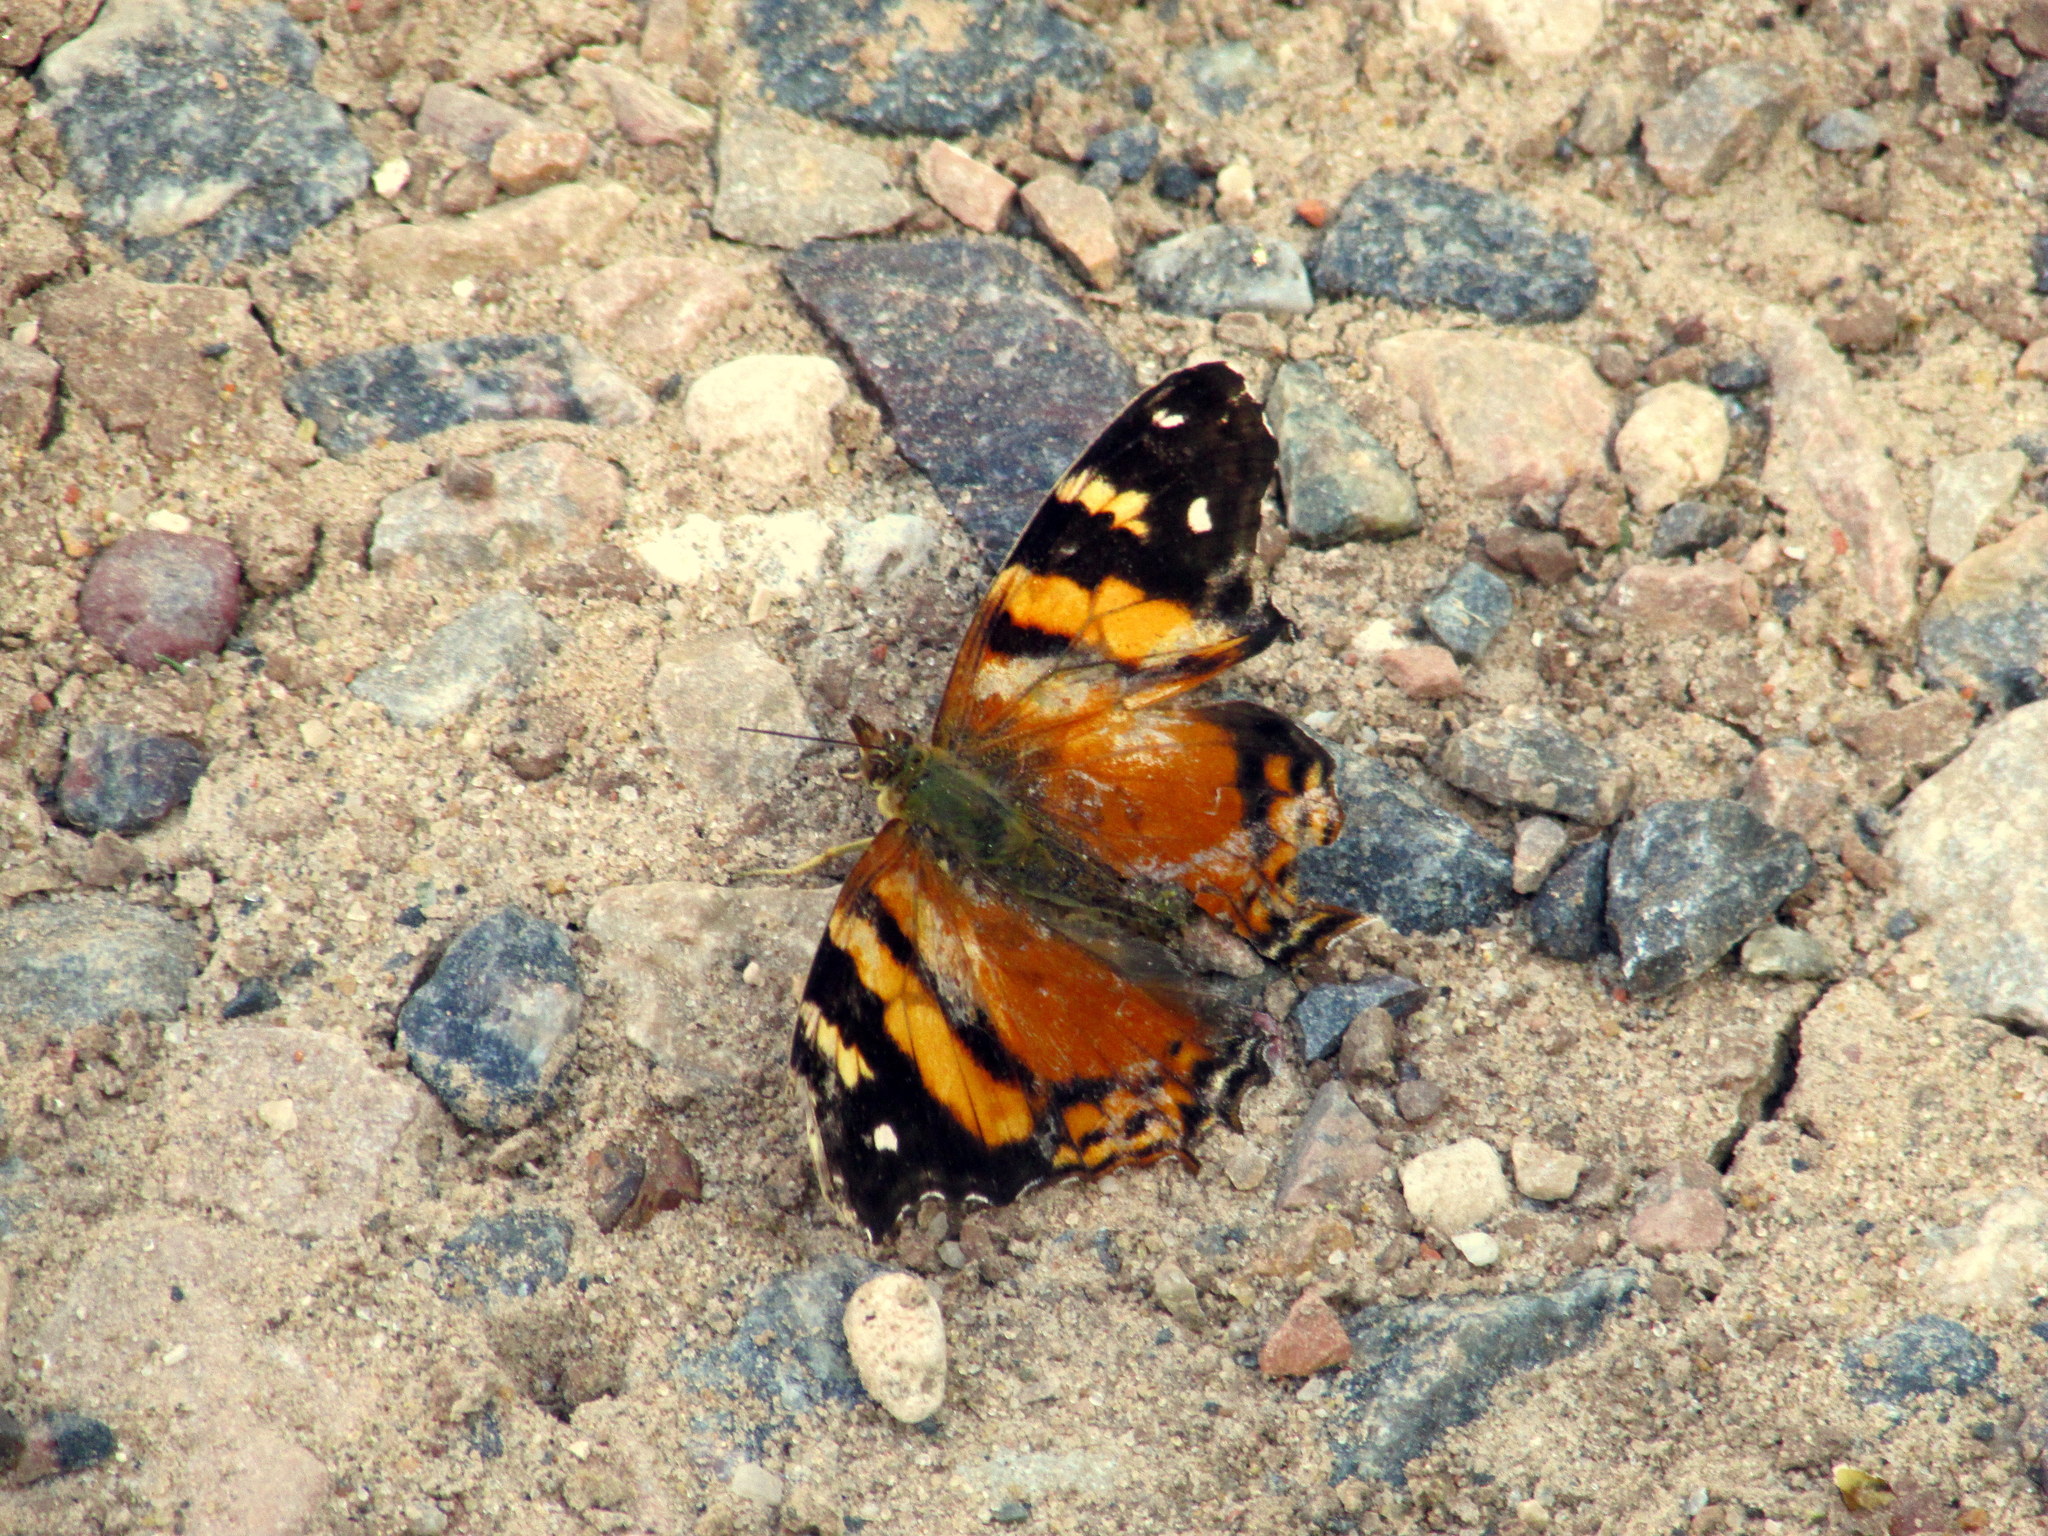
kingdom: Animalia
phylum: Arthropoda
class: Insecta
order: Lepidoptera
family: Nymphalidae
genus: Hypanartia
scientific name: Hypanartia bella
